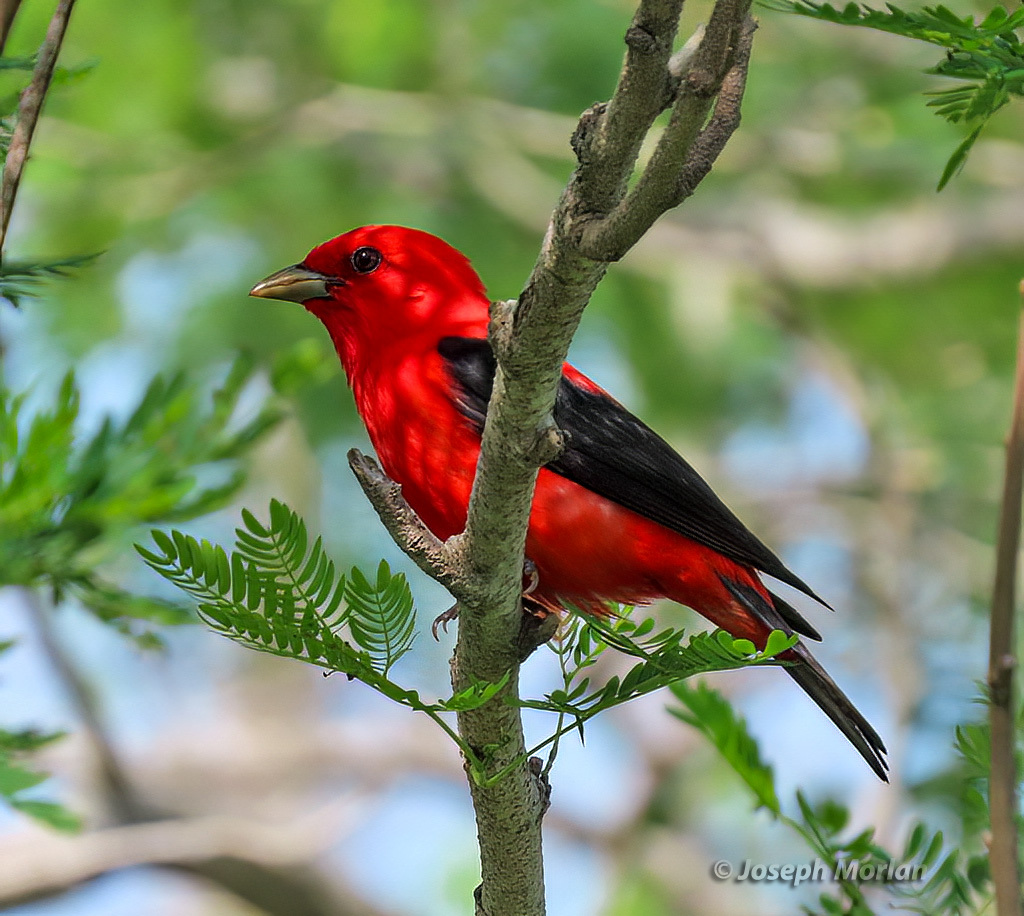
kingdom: Animalia
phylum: Chordata
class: Aves
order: Passeriformes
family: Cardinalidae
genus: Piranga
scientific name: Piranga olivacea
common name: Scarlet tanager
